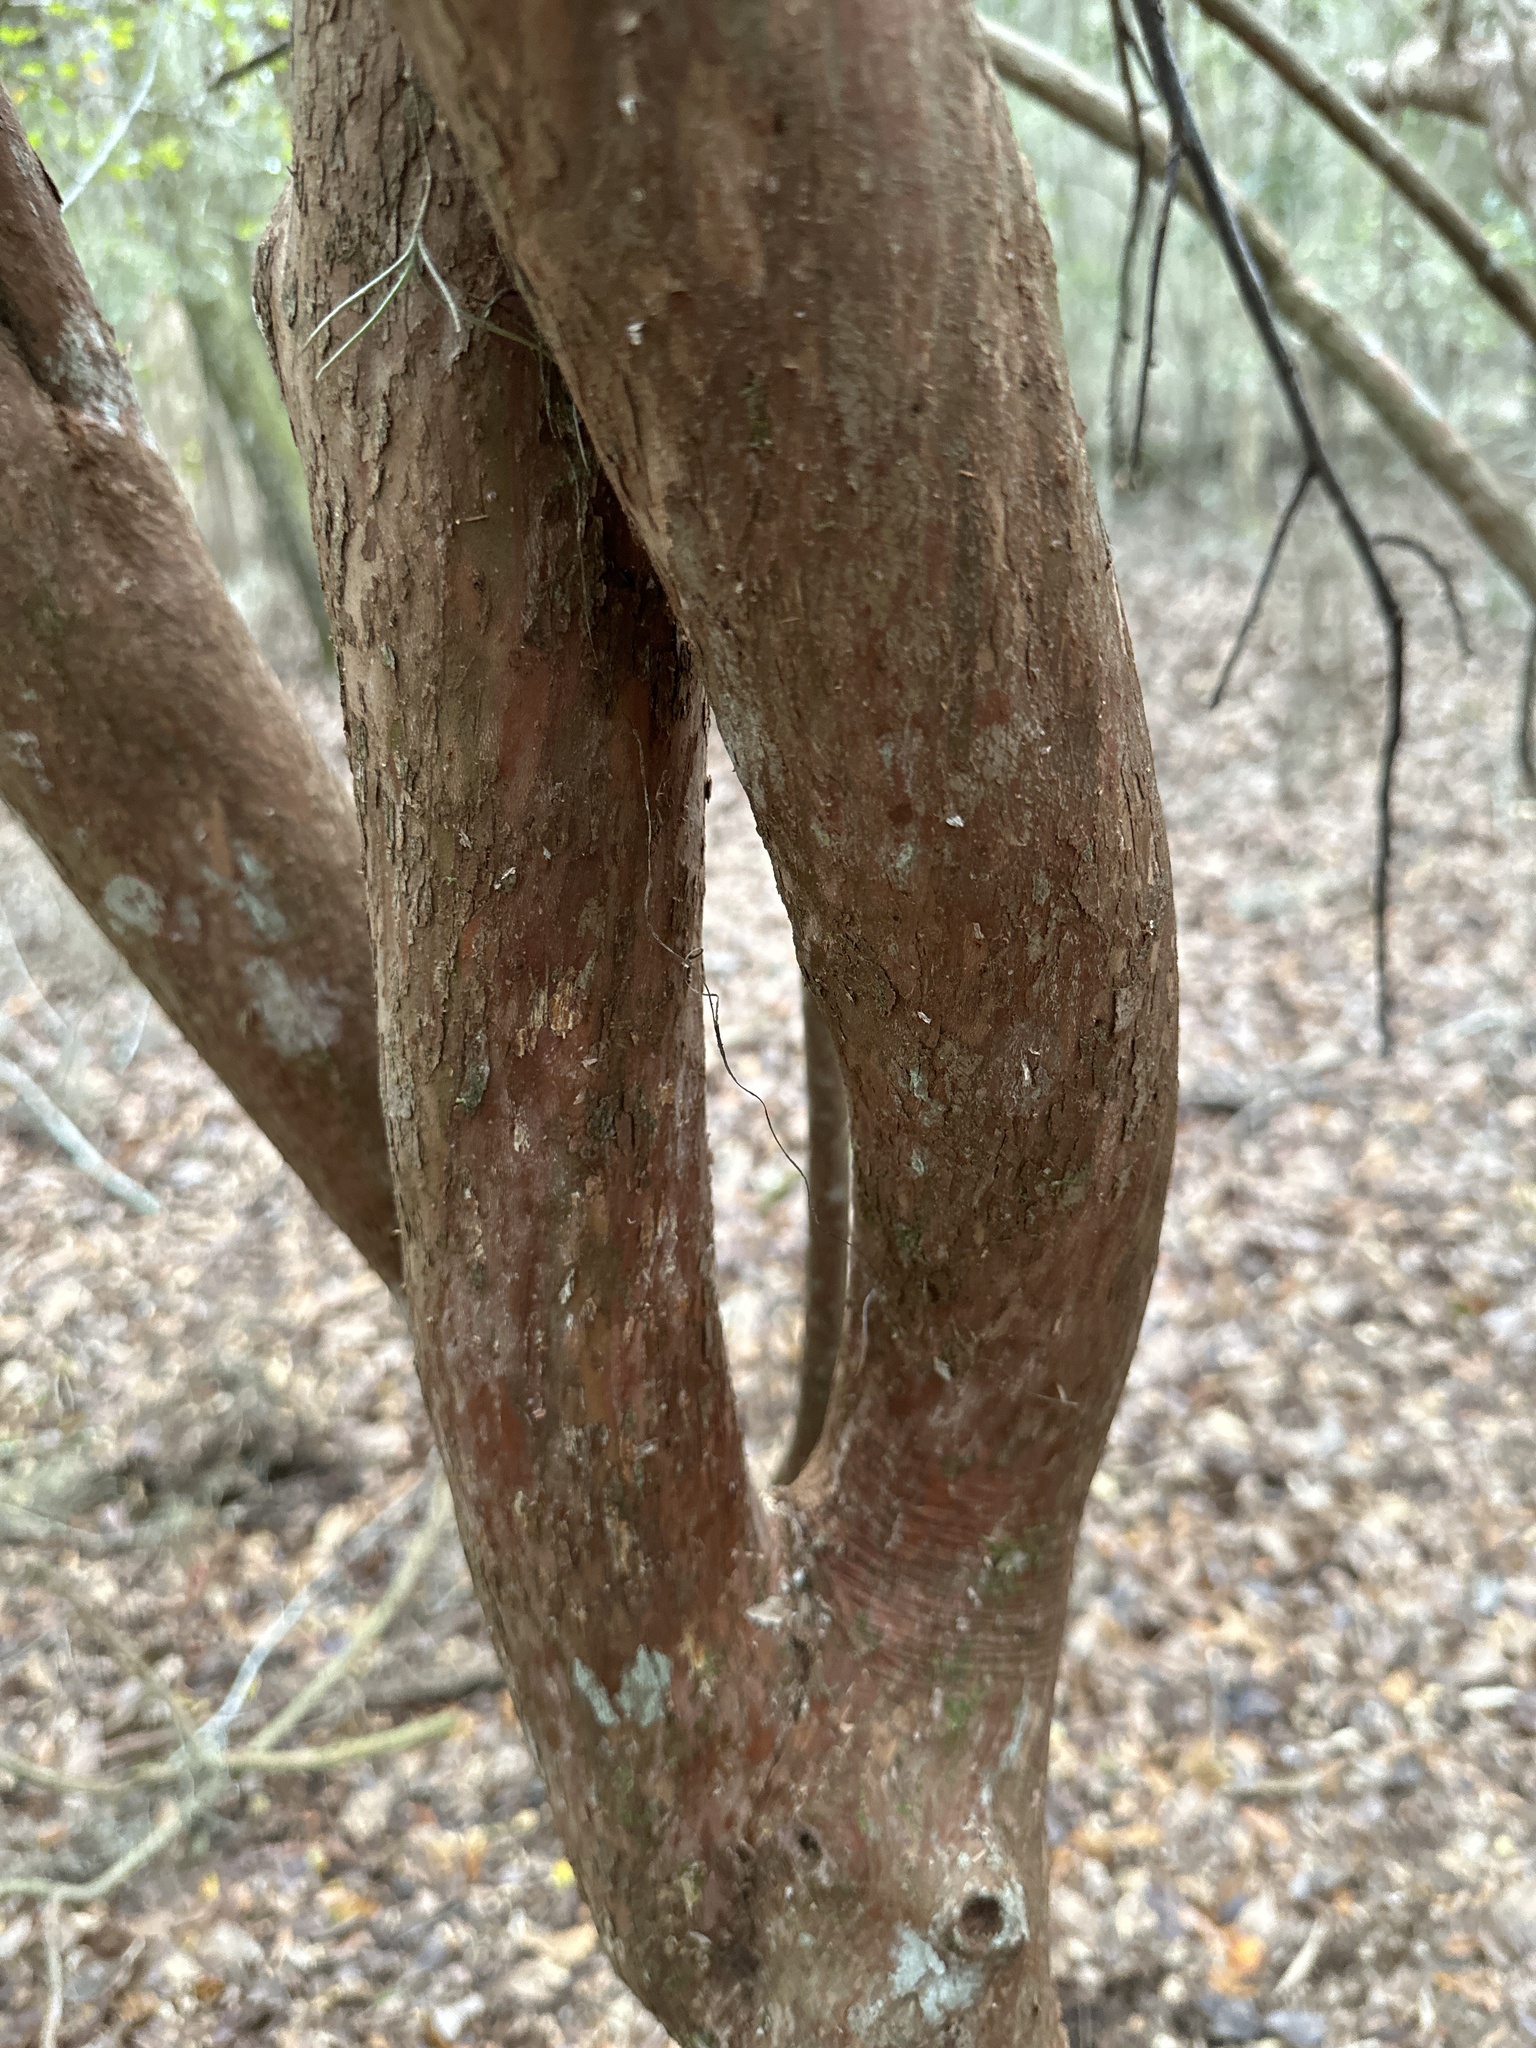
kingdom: Plantae
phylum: Tracheophyta
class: Magnoliopsida
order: Ericales
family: Ericaceae
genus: Vaccinium
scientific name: Vaccinium arboreum
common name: Farkleberry
